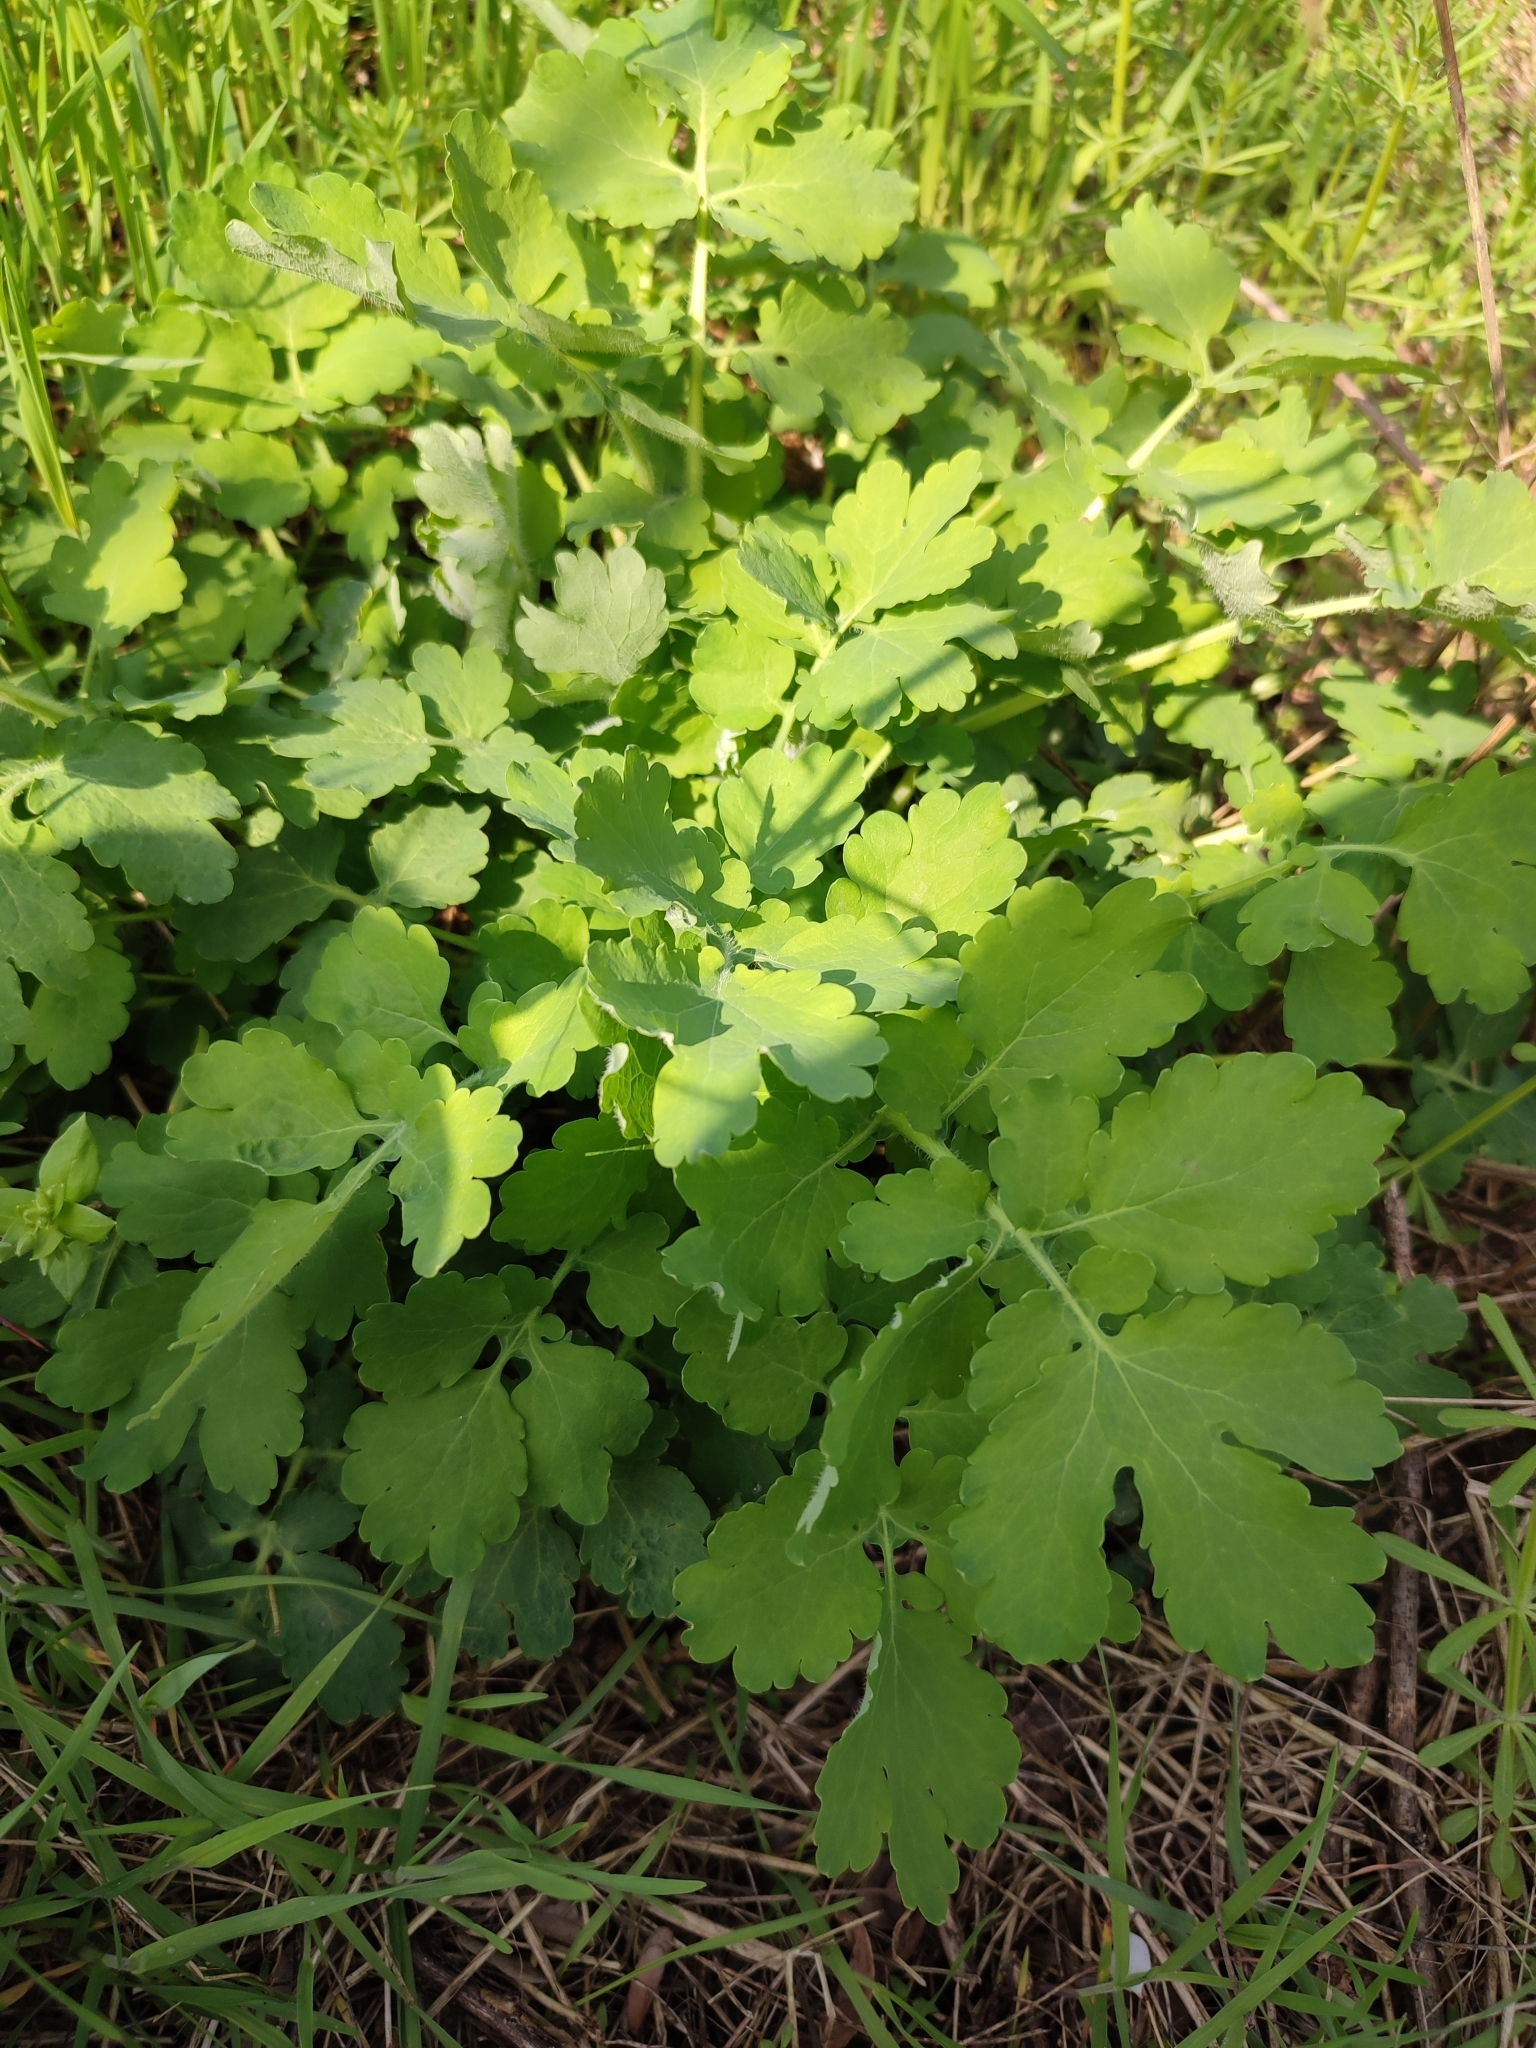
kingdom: Plantae
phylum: Tracheophyta
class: Magnoliopsida
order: Ranunculales
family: Papaveraceae
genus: Chelidonium
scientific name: Chelidonium majus
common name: Greater celandine
